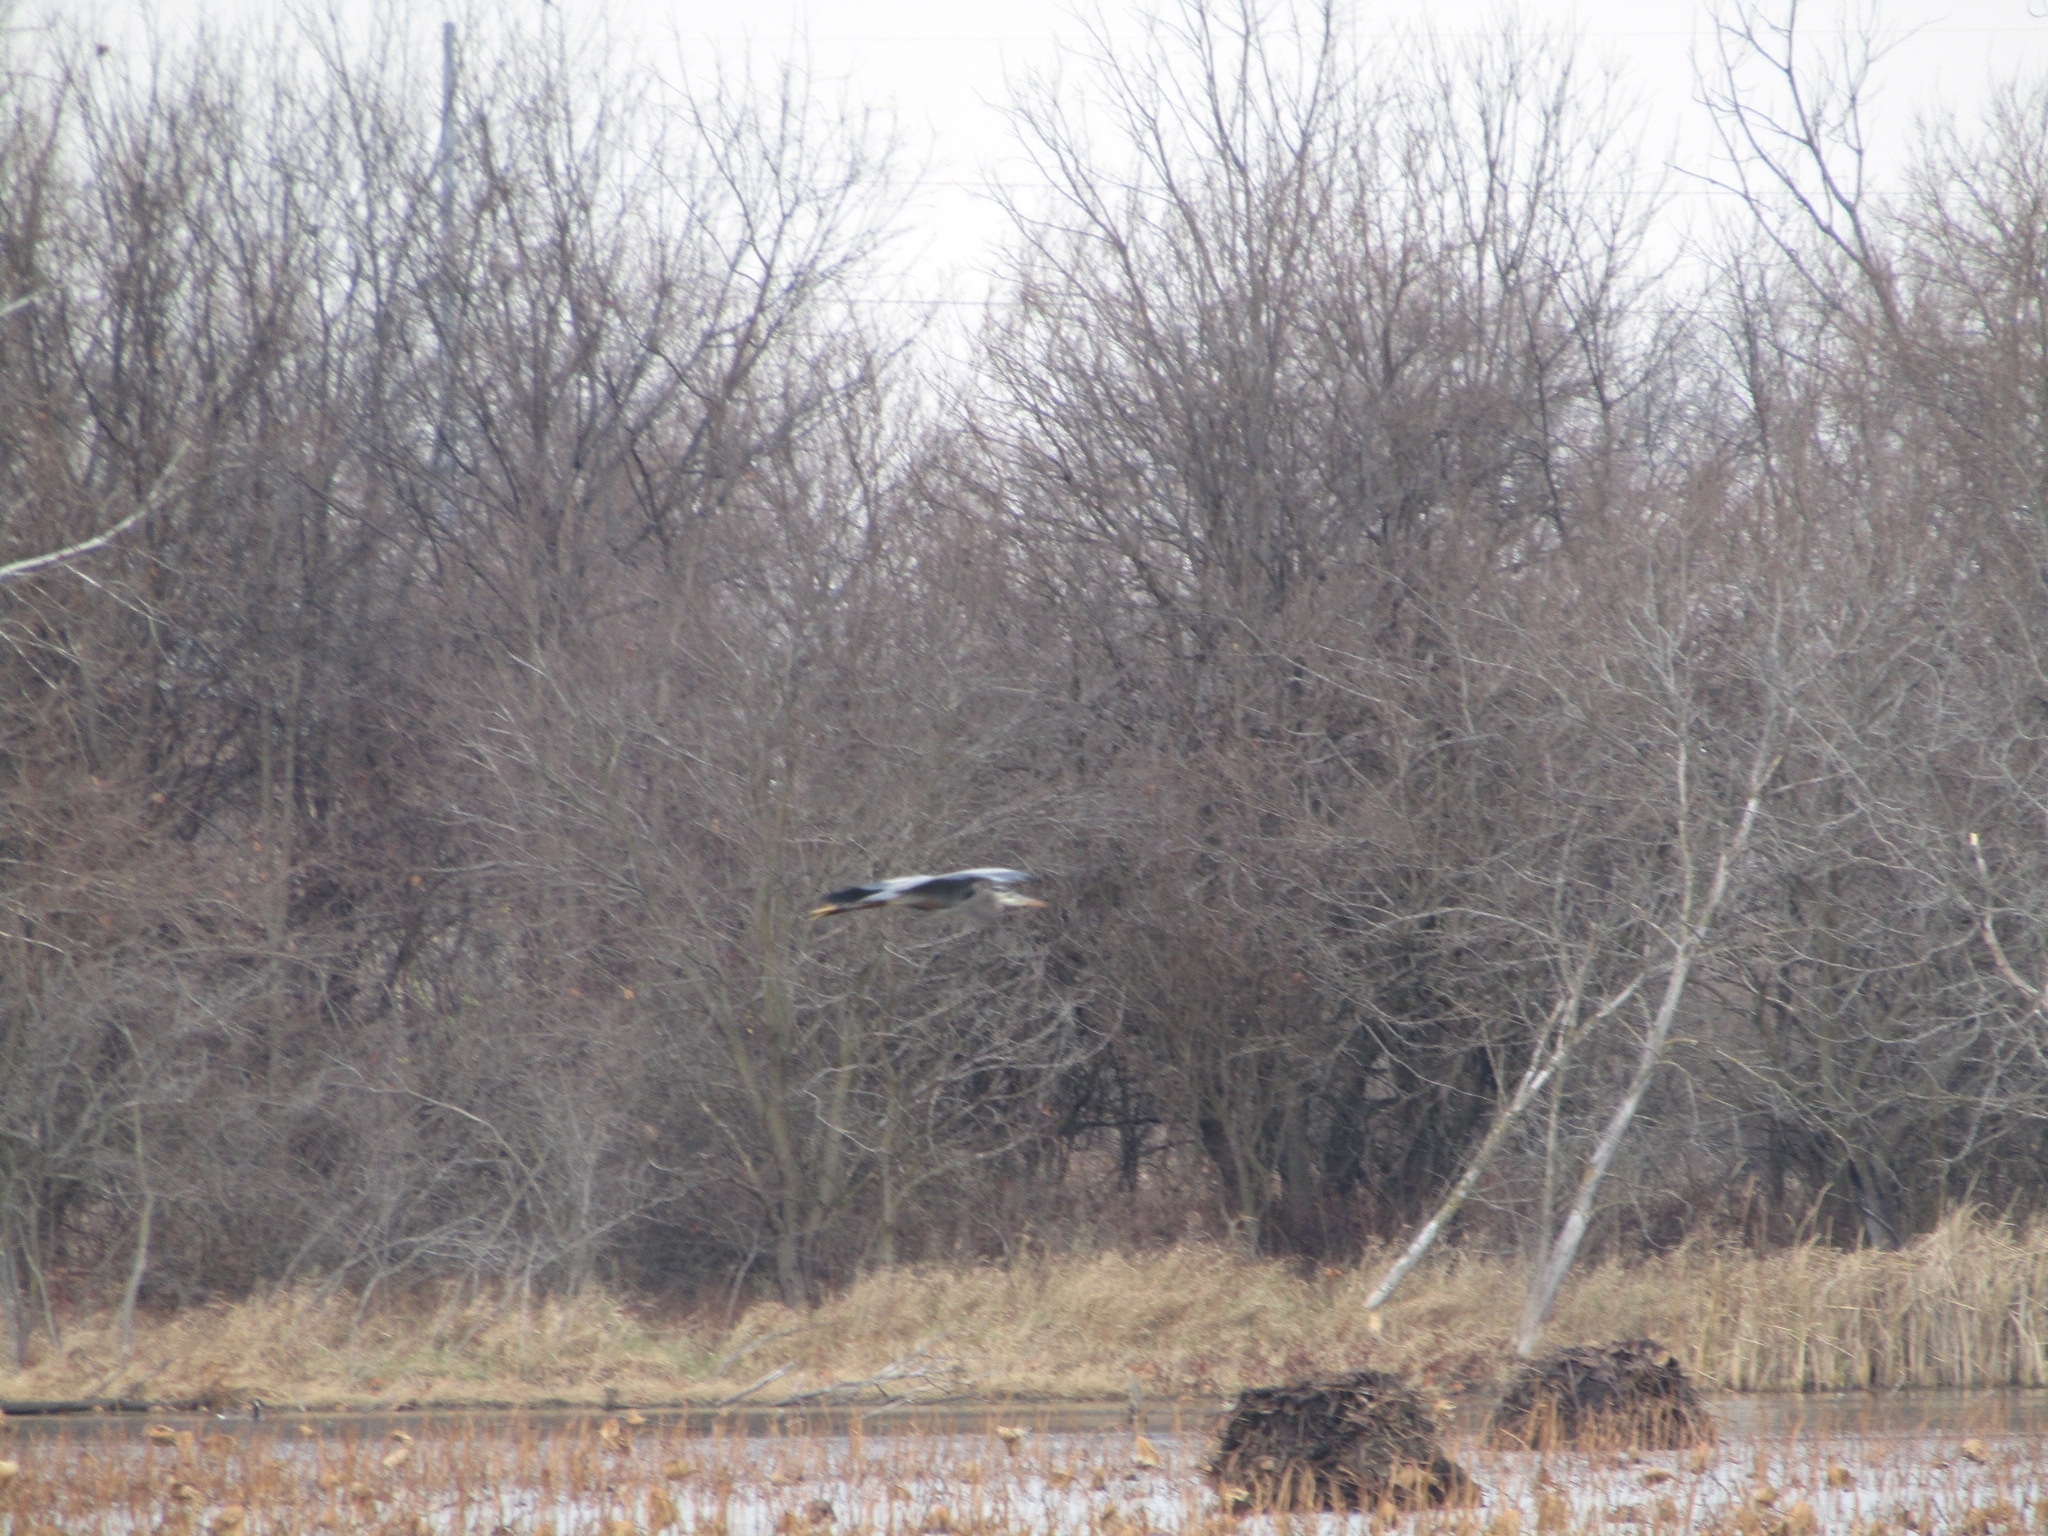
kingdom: Animalia
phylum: Chordata
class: Aves
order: Pelecaniformes
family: Ardeidae
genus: Ardea
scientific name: Ardea herodias
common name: Great blue heron
